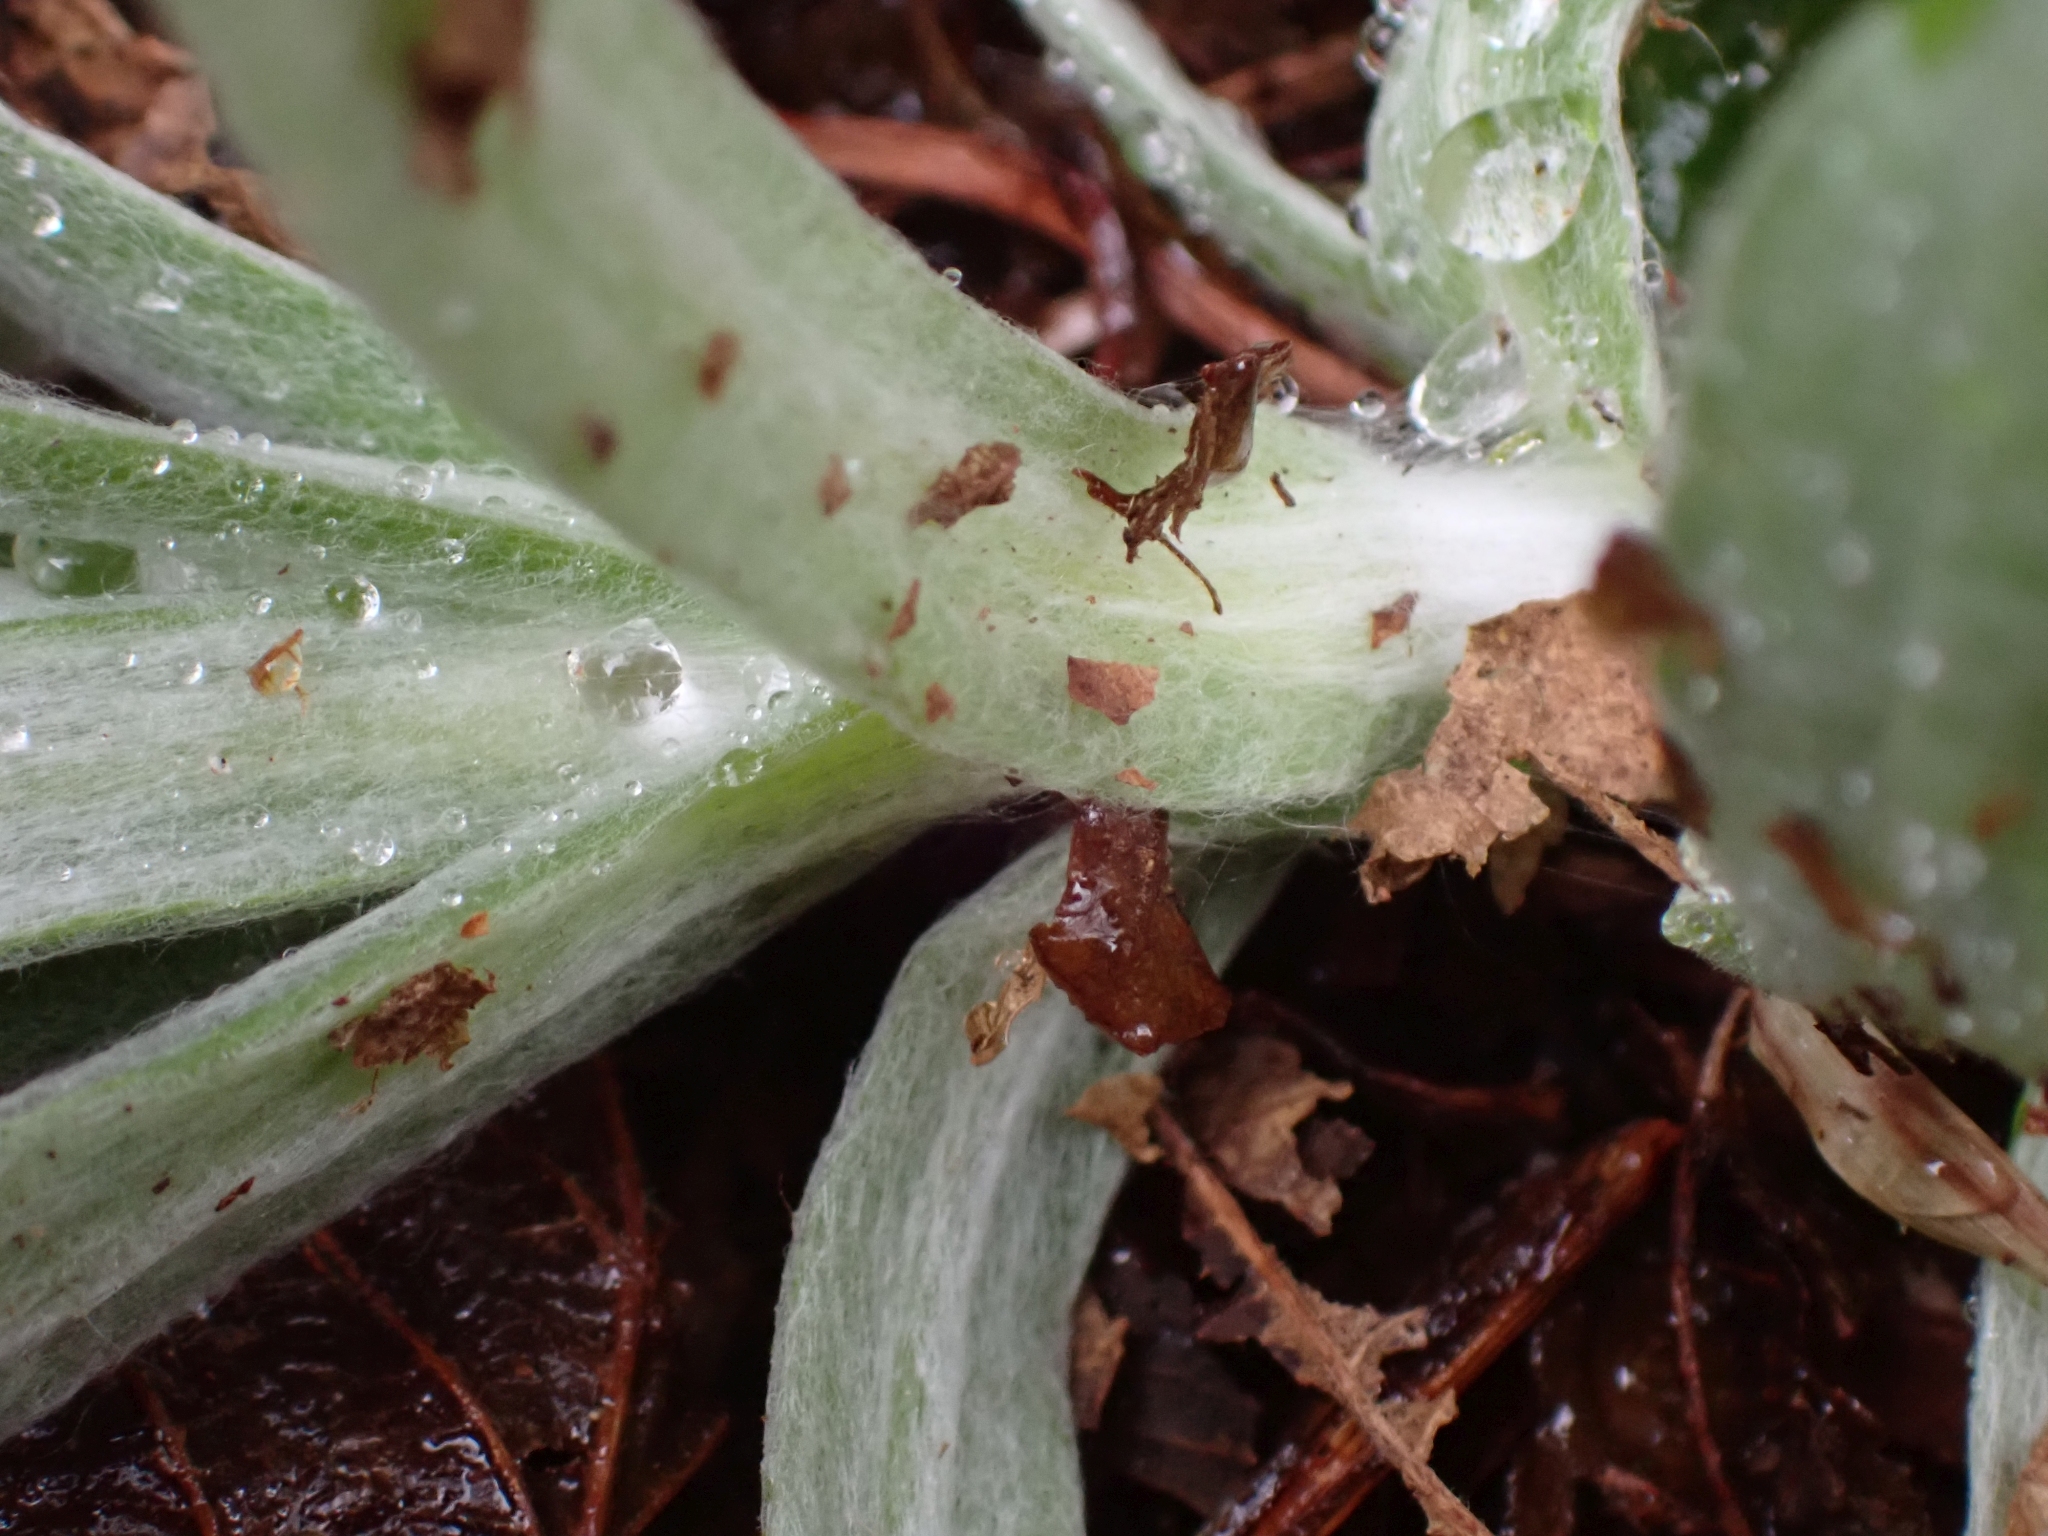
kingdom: Plantae
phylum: Tracheophyta
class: Magnoliopsida
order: Asterales
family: Asteraceae
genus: Anaphalis
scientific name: Anaphalis margaritacea
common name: Pearly everlasting
